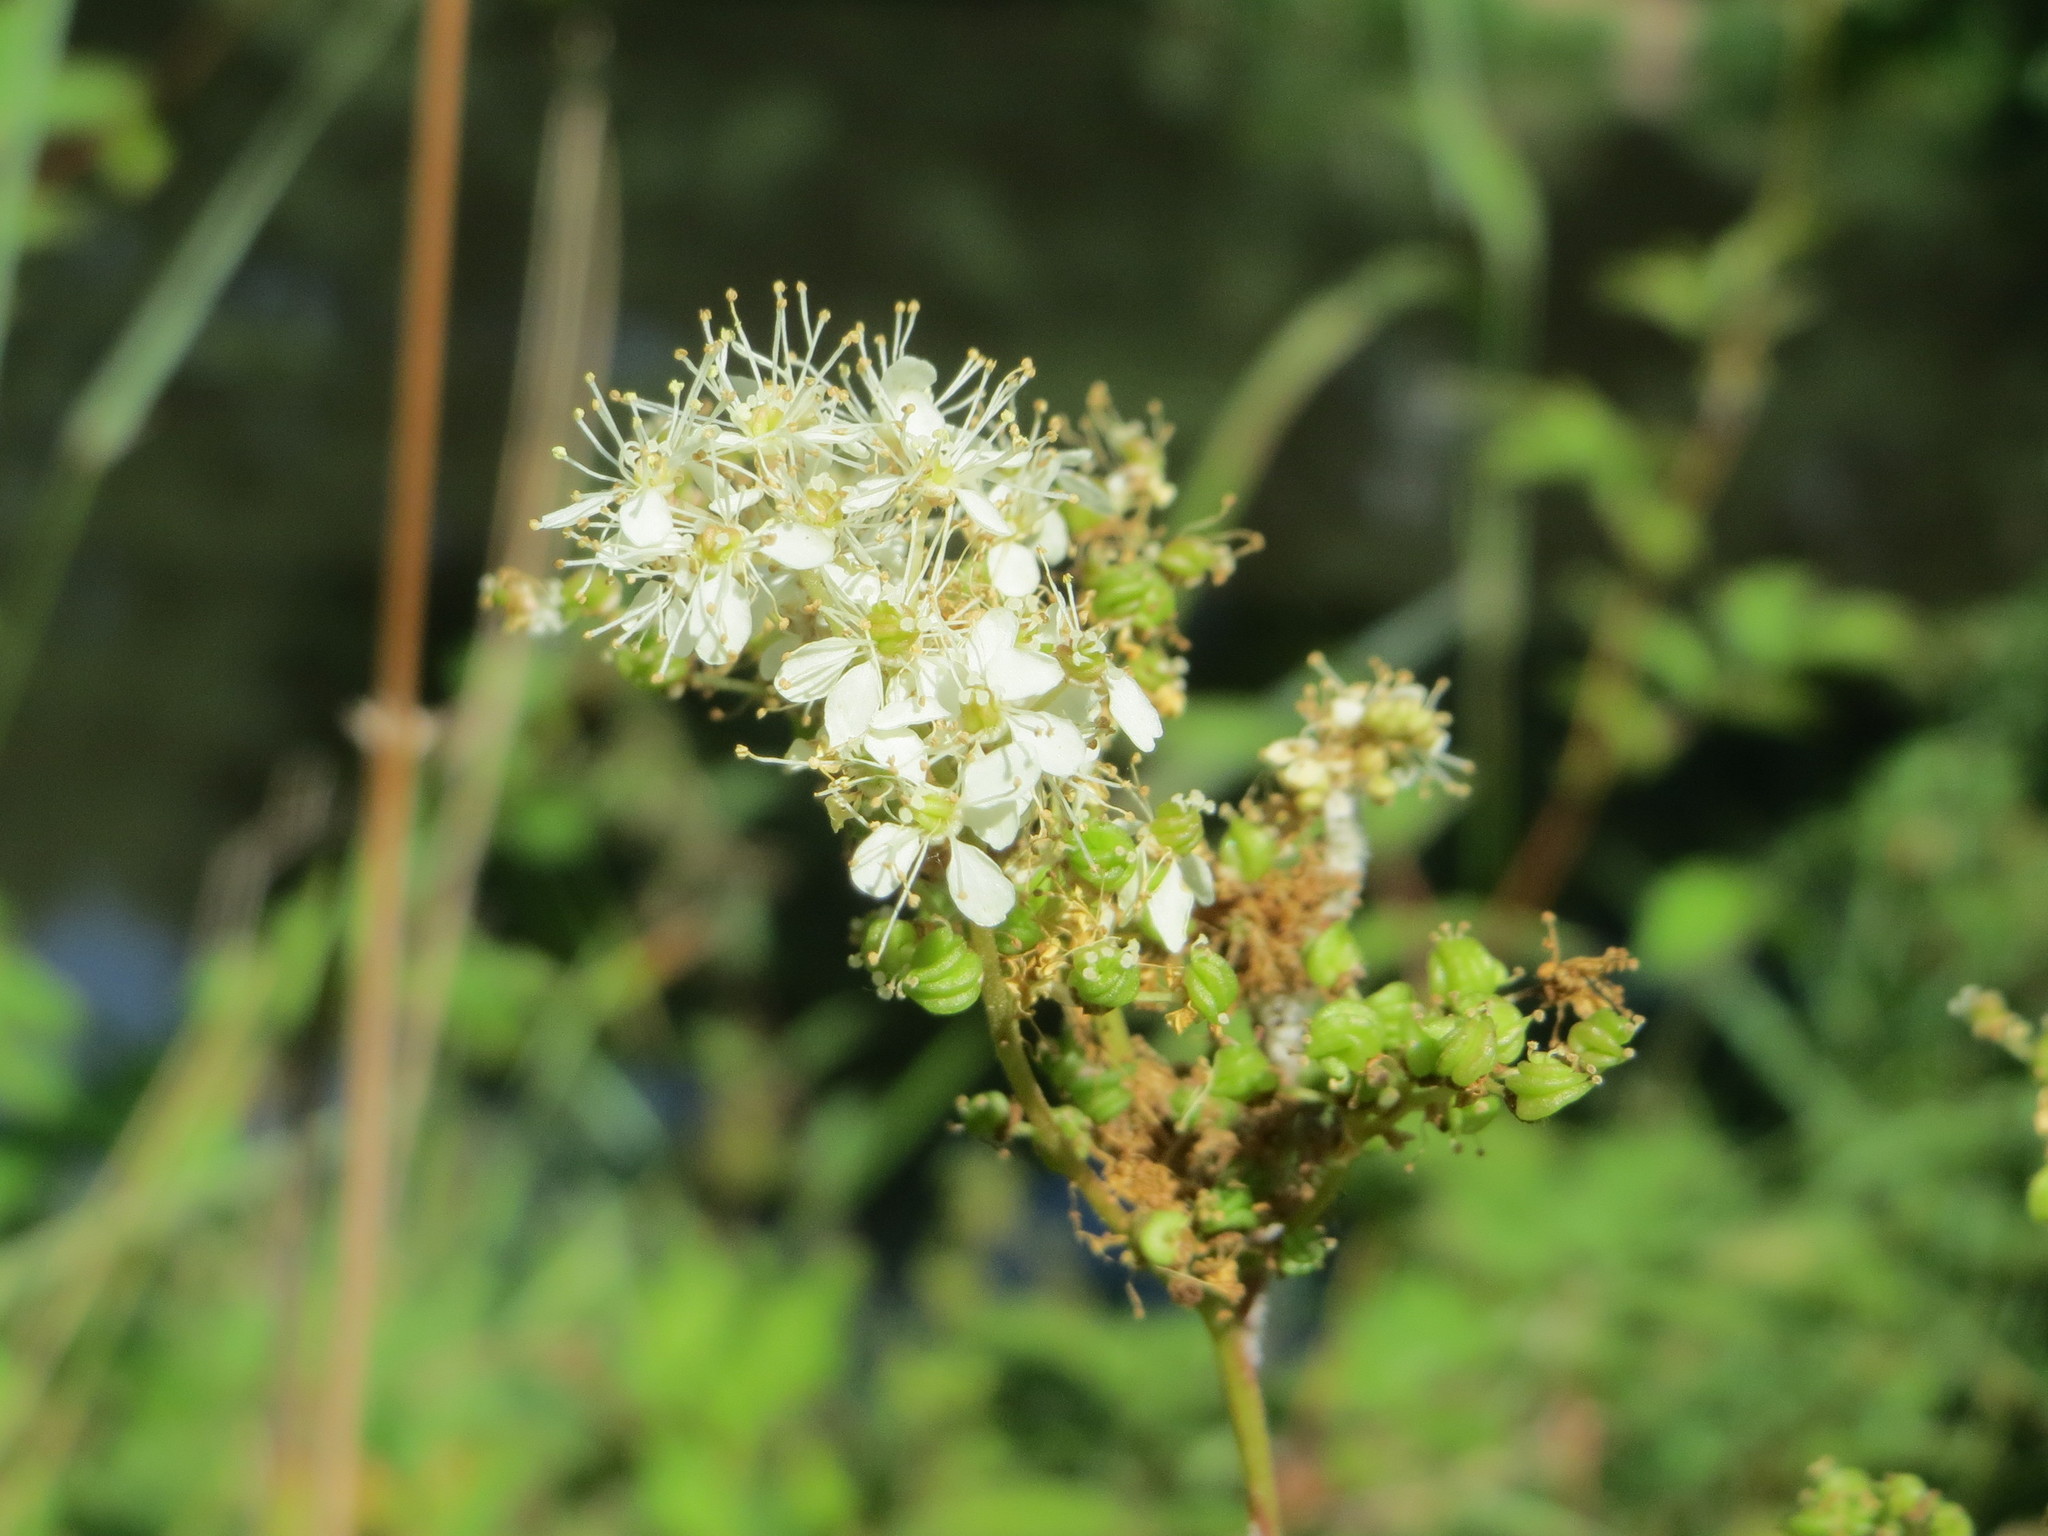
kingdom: Plantae
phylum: Tracheophyta
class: Magnoliopsida
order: Rosales
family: Rosaceae
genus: Filipendula
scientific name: Filipendula ulmaria
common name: Meadowsweet
